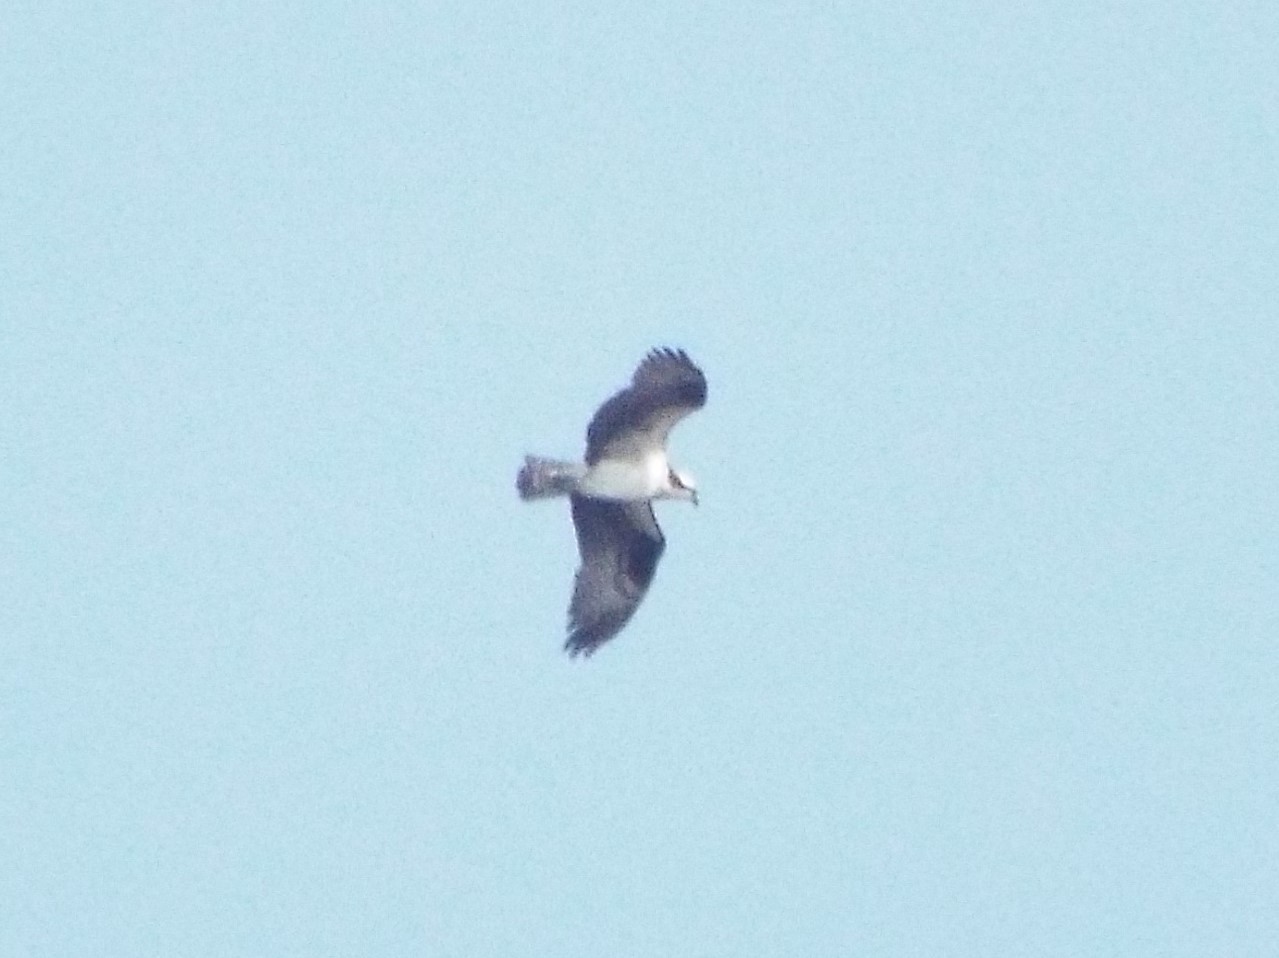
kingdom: Animalia
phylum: Chordata
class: Aves
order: Accipitriformes
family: Pandionidae
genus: Pandion
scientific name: Pandion haliaetus
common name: Osprey
